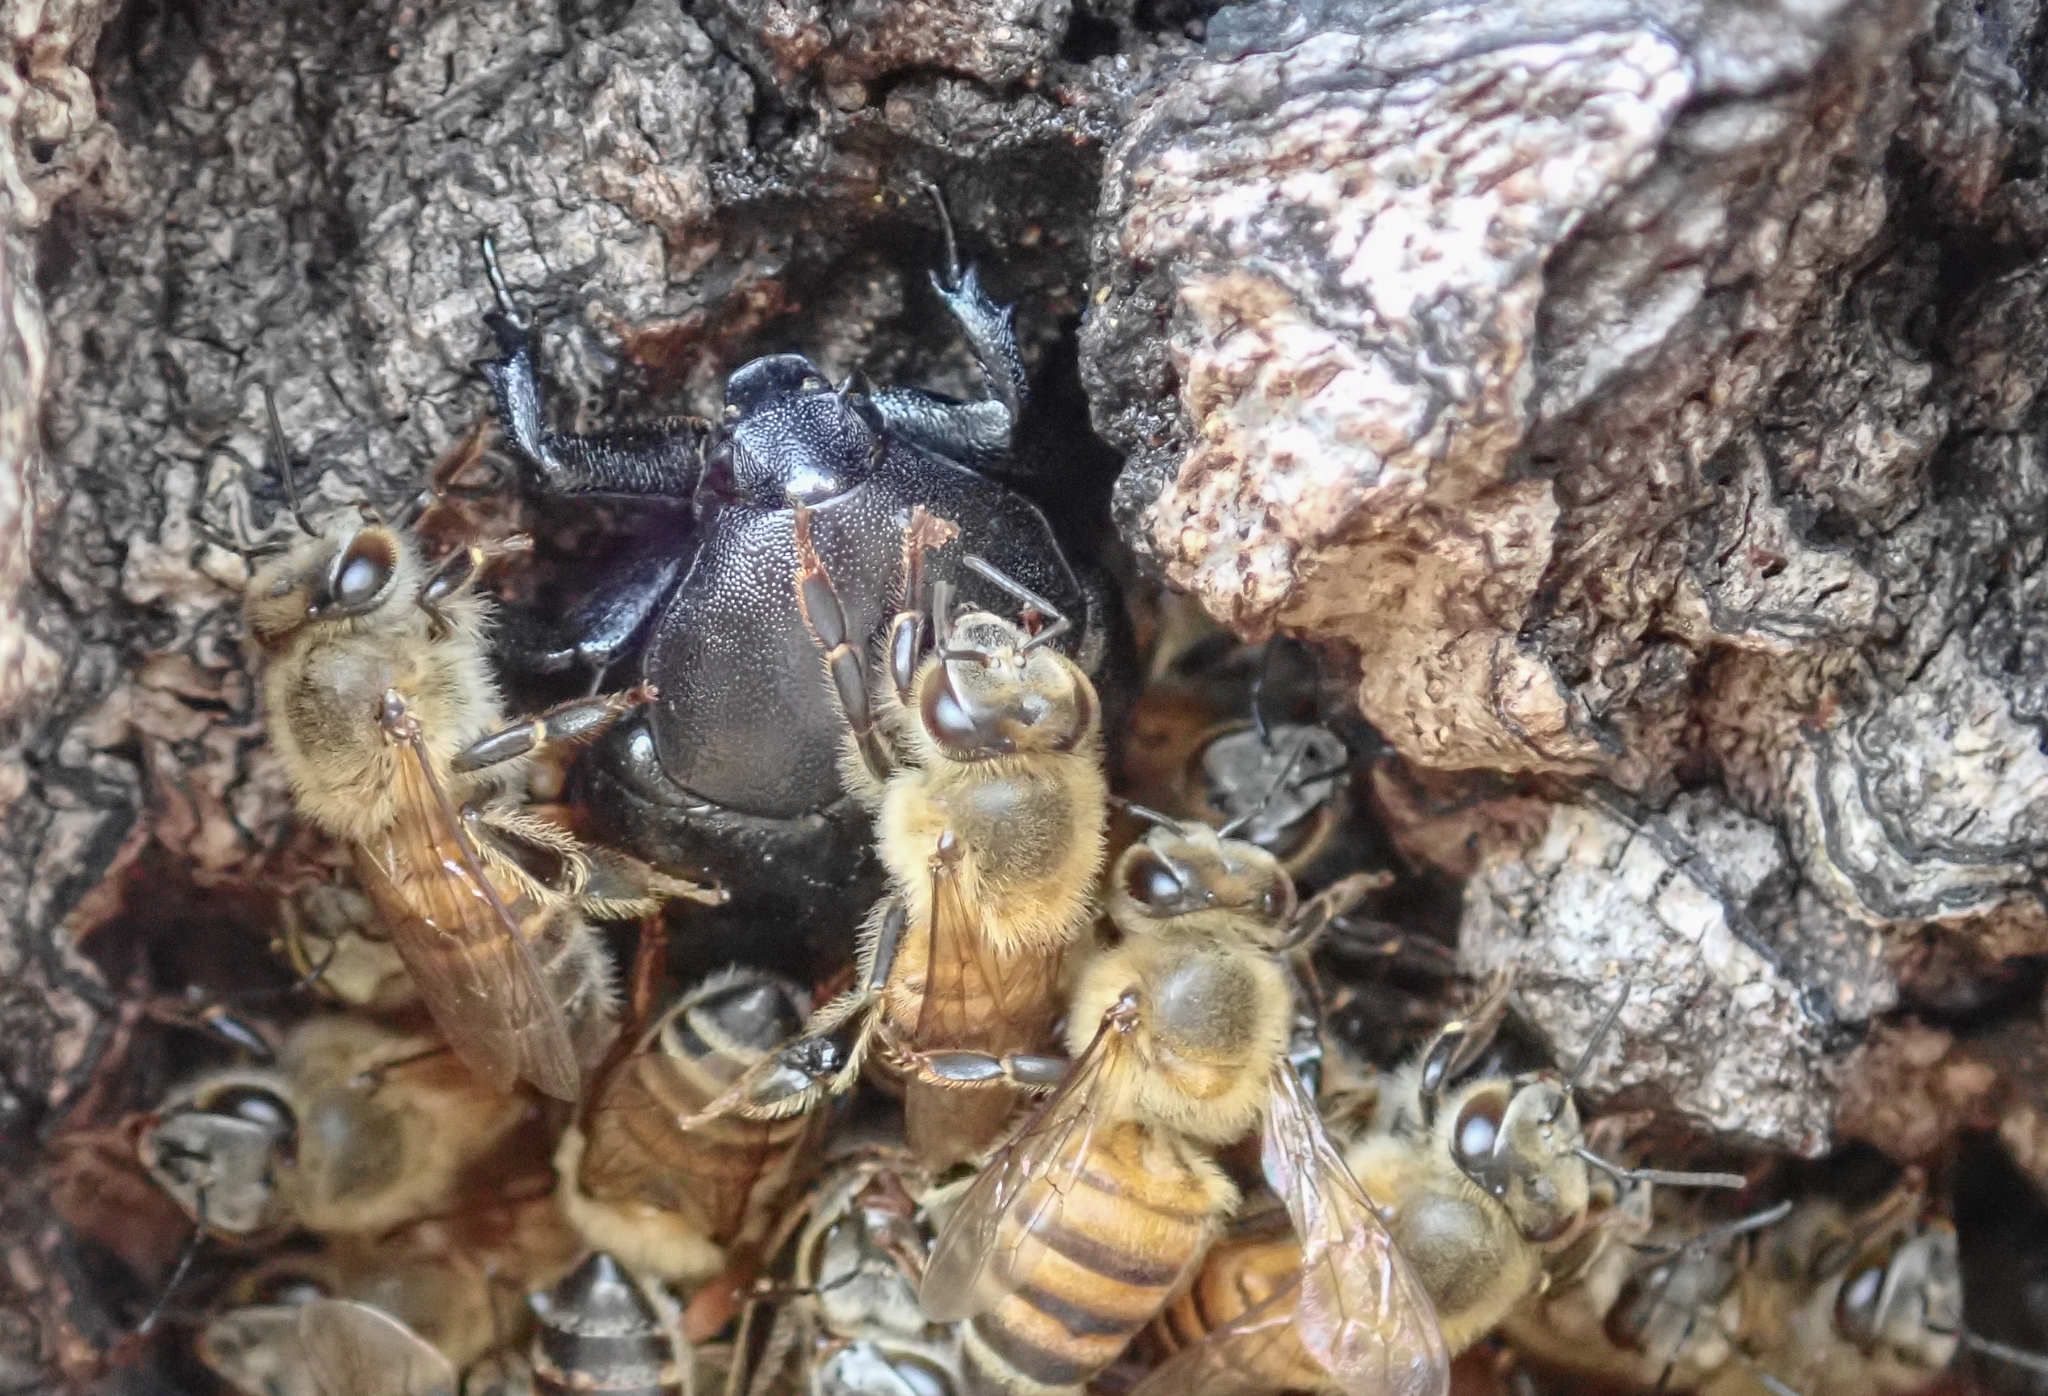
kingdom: Animalia
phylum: Arthropoda
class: Insecta
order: Coleoptera
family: Scarabaeidae
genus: Oplostomus
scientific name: Oplostomus fuligineus
